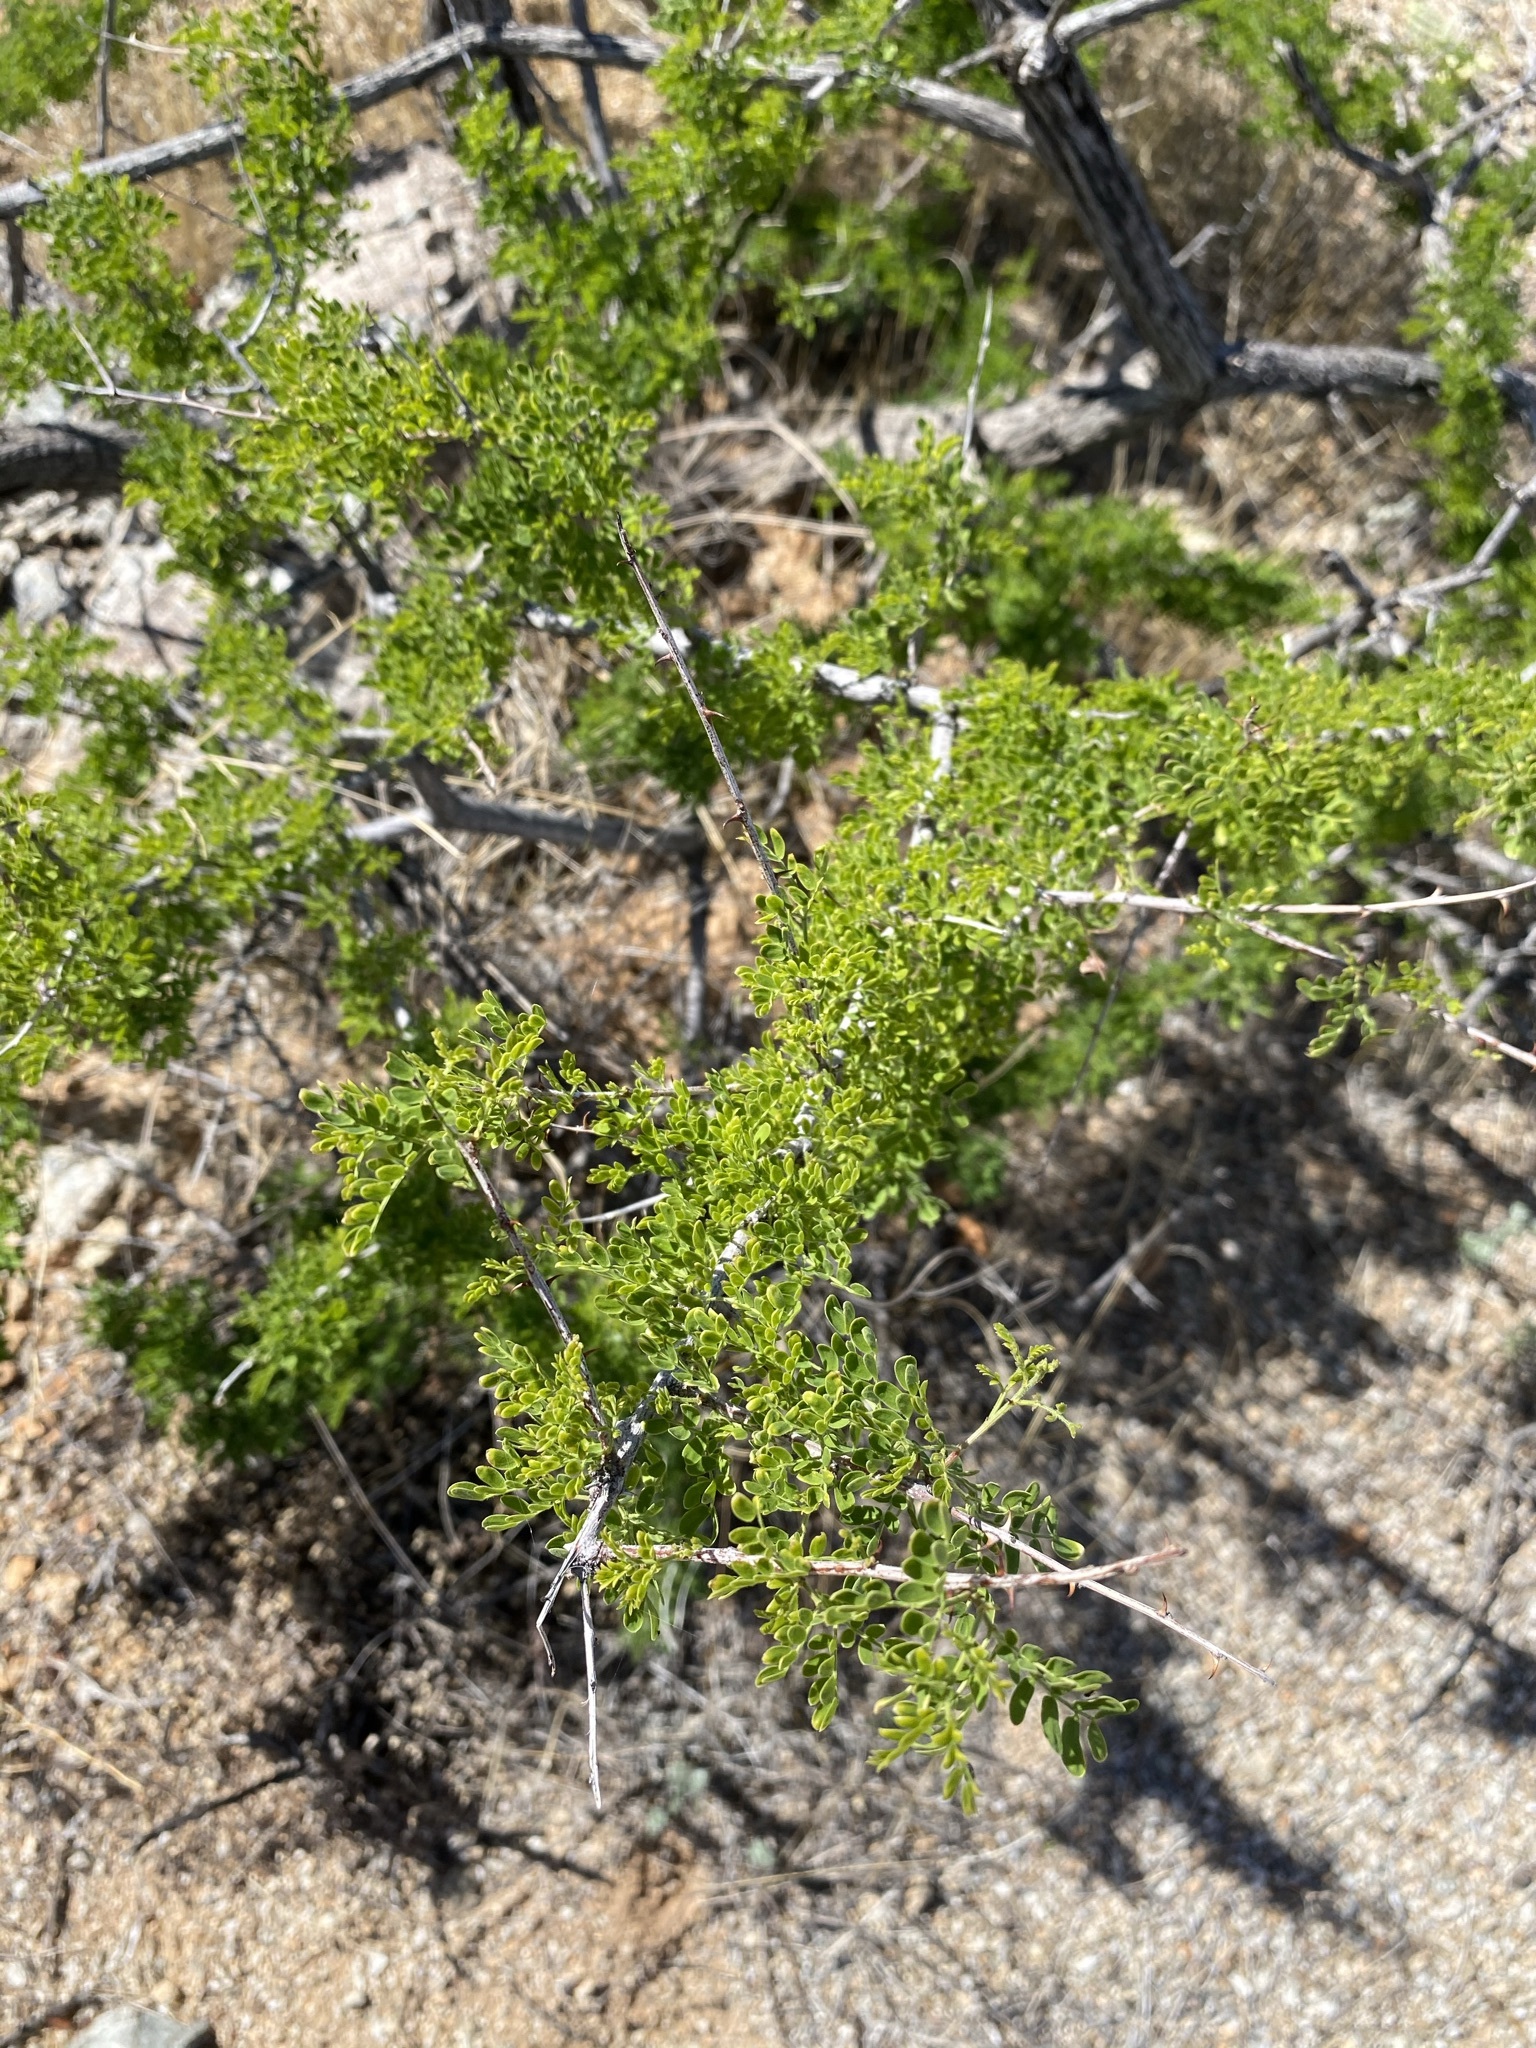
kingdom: Plantae
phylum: Tracheophyta
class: Magnoliopsida
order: Fabales
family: Fabaceae
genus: Senegalia
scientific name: Senegalia greggii
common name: Texas-mimosa
